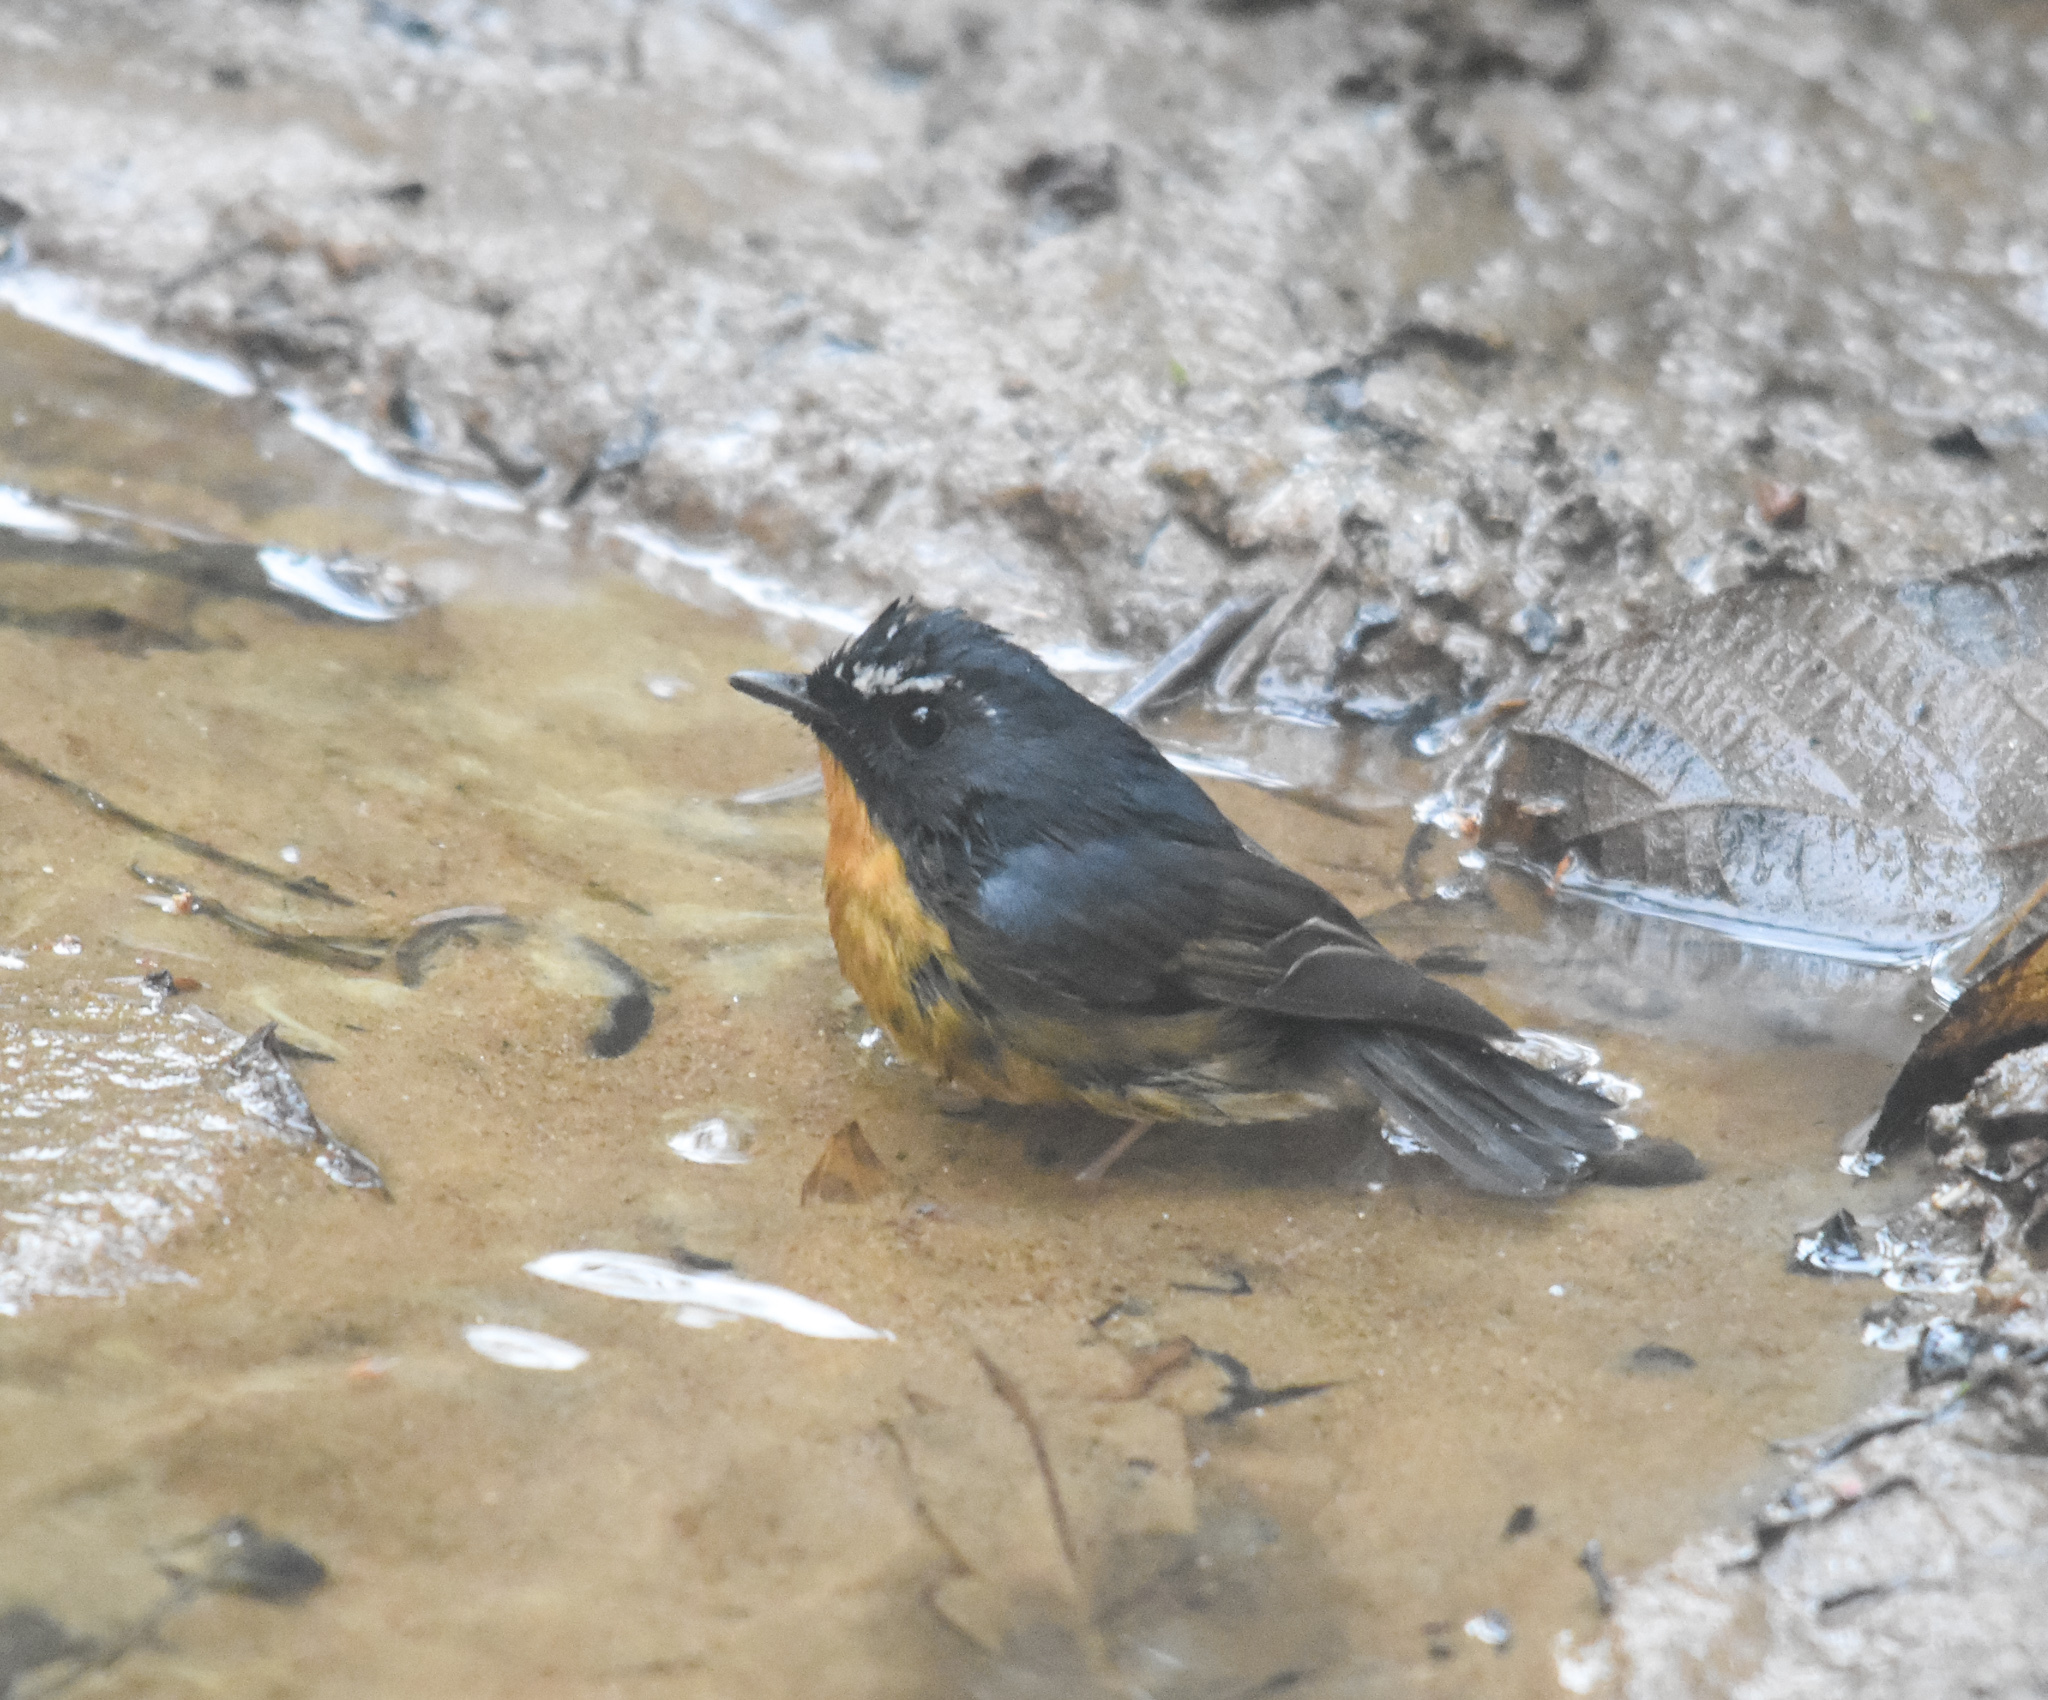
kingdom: Animalia
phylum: Chordata
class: Aves
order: Passeriformes
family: Muscicapidae
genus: Ficedula
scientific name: Ficedula hyperythra
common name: Snowy-browed flycatcher
